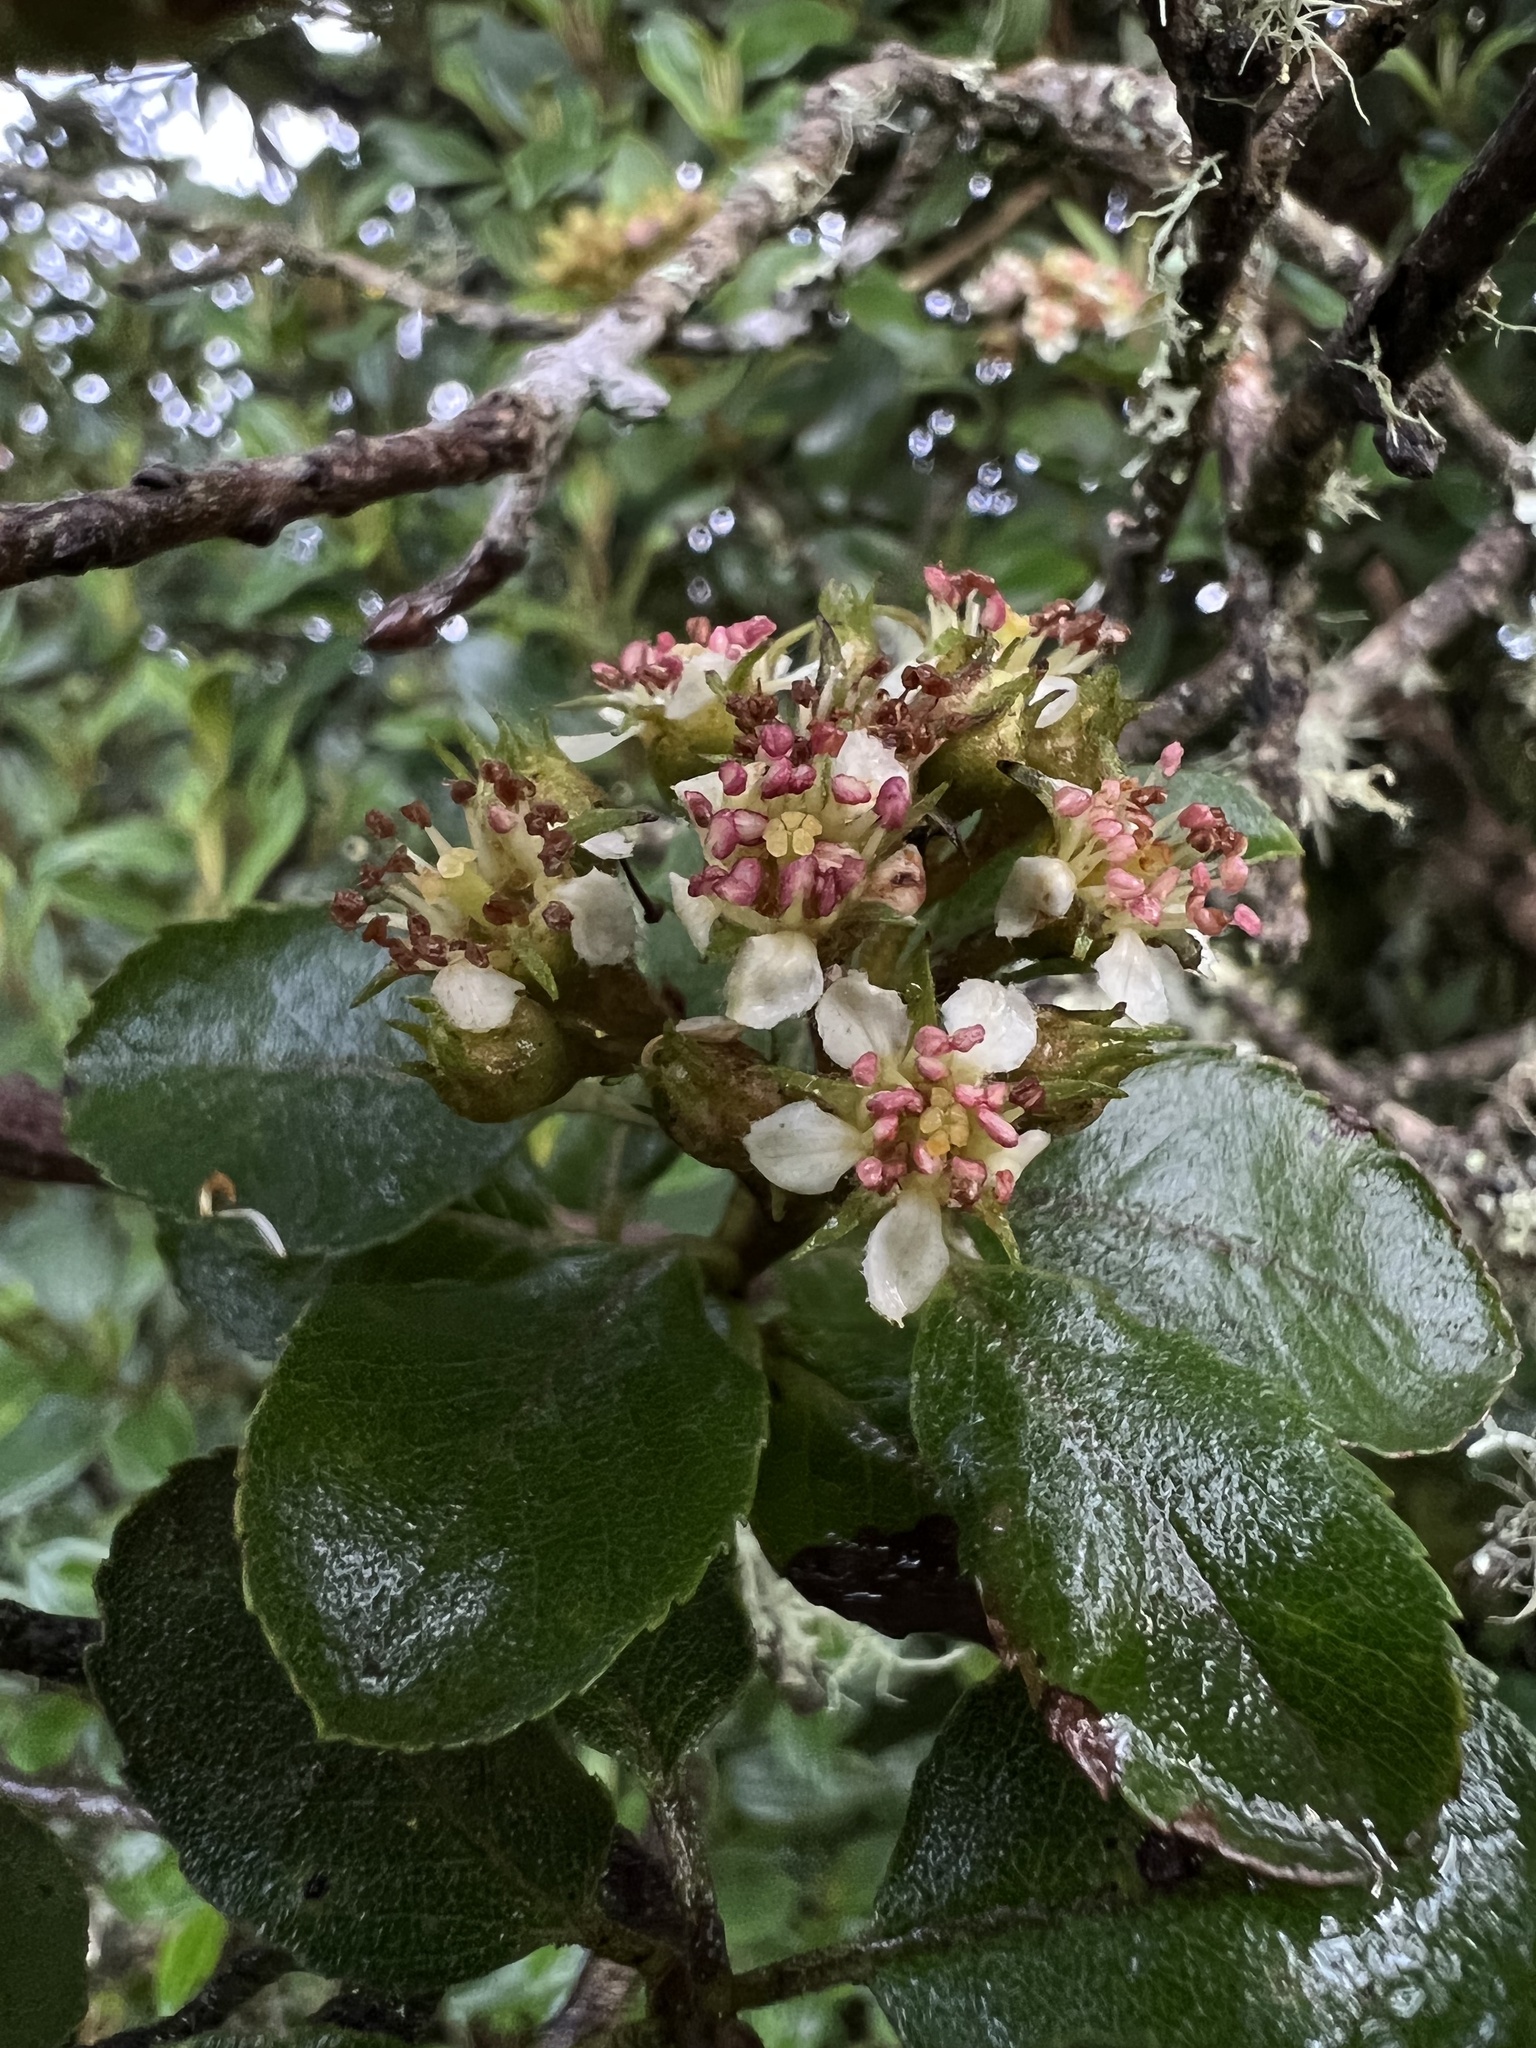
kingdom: Plantae
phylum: Tracheophyta
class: Magnoliopsida
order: Rosales
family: Rosaceae
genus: Hesperomeles
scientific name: Hesperomeles goudotiana
